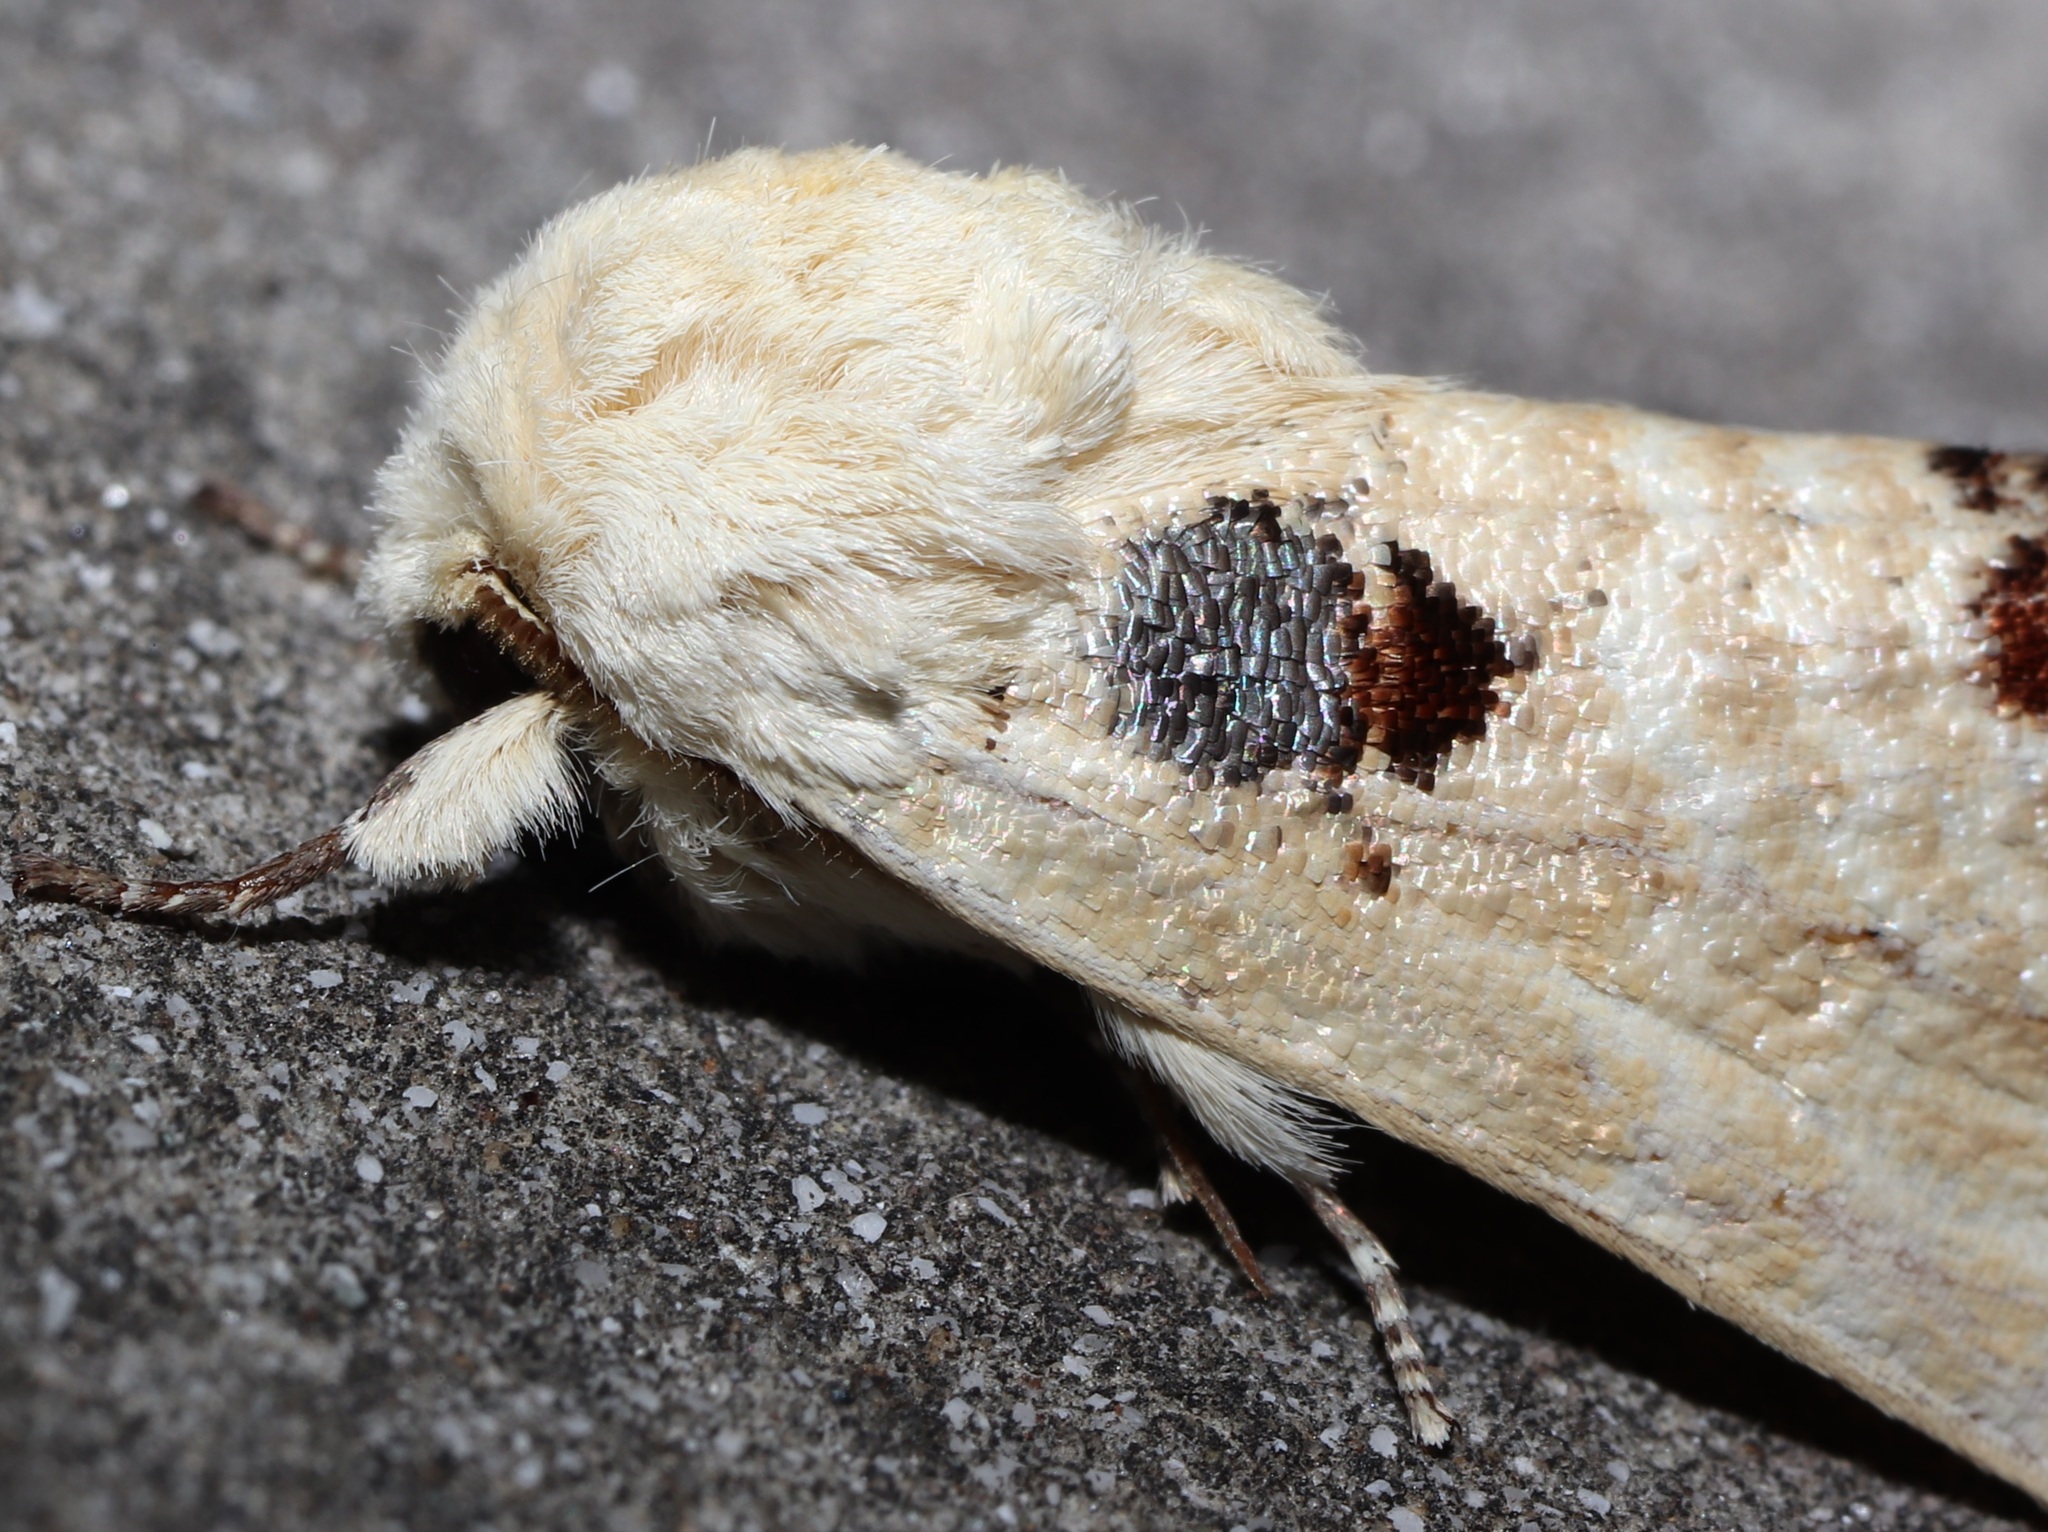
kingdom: Animalia
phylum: Arthropoda
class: Insecta
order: Lepidoptera
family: Notodontidae
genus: Phalera
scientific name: Phalera flavescens
